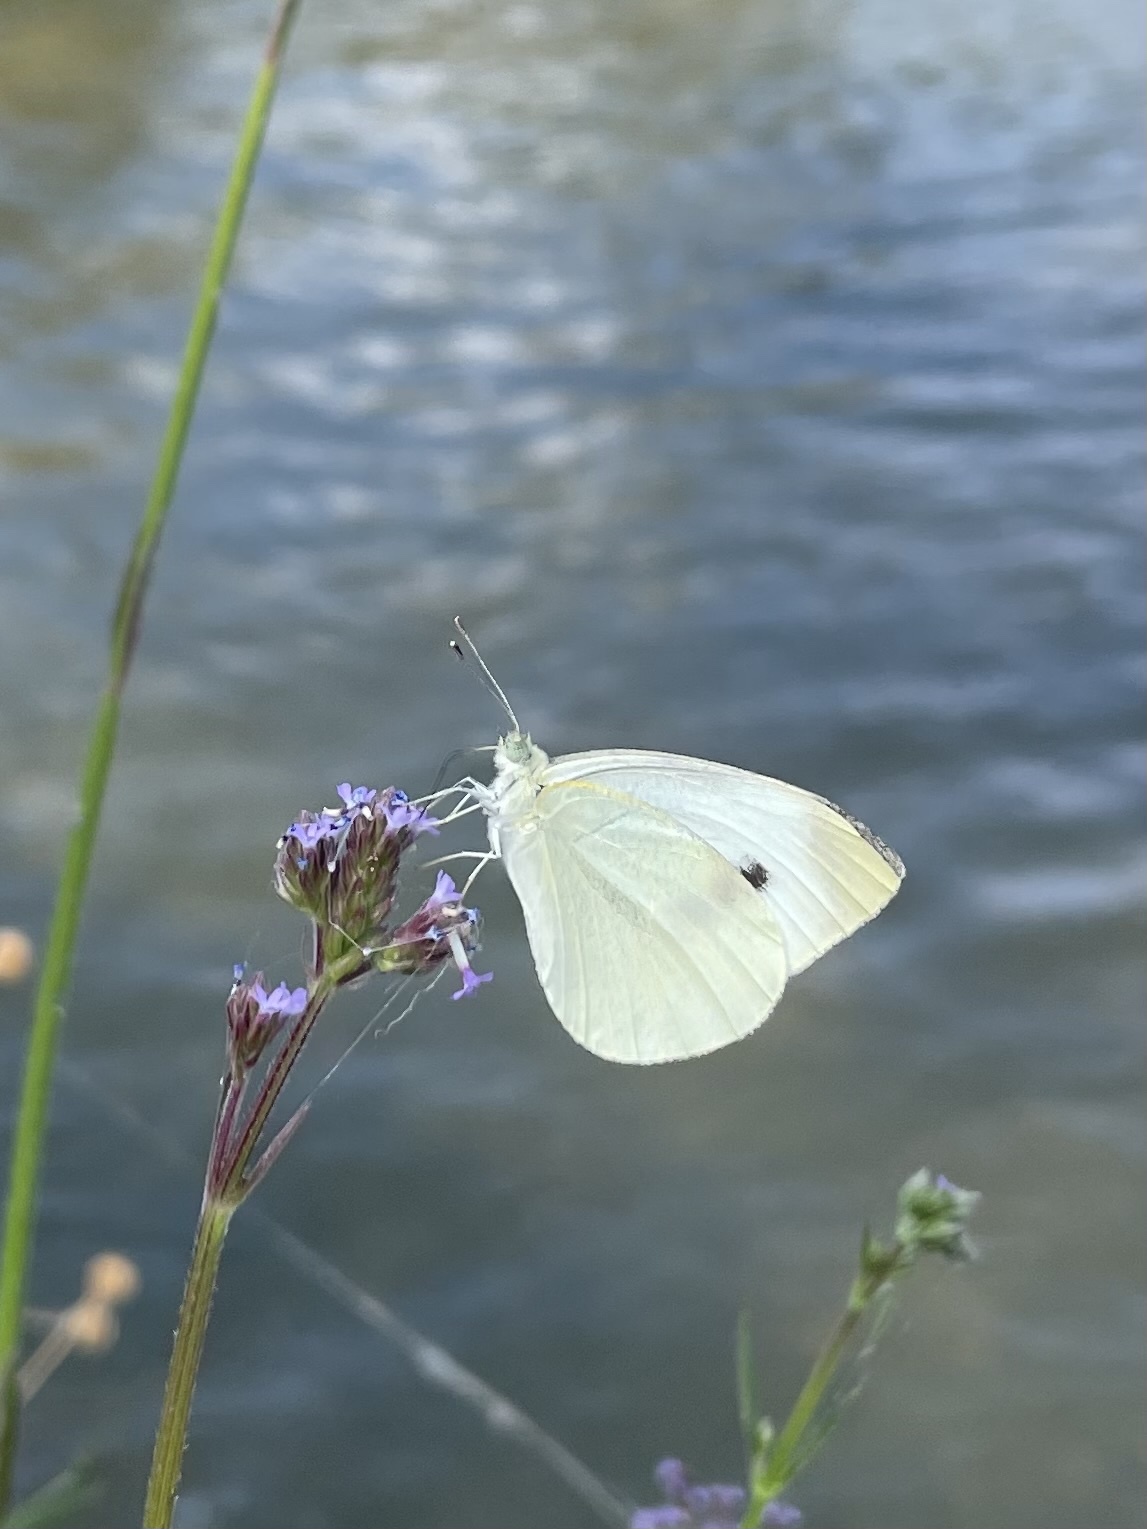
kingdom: Animalia
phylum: Arthropoda
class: Insecta
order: Lepidoptera
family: Pieridae
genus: Pieris
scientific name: Pieris rapae
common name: Small white
